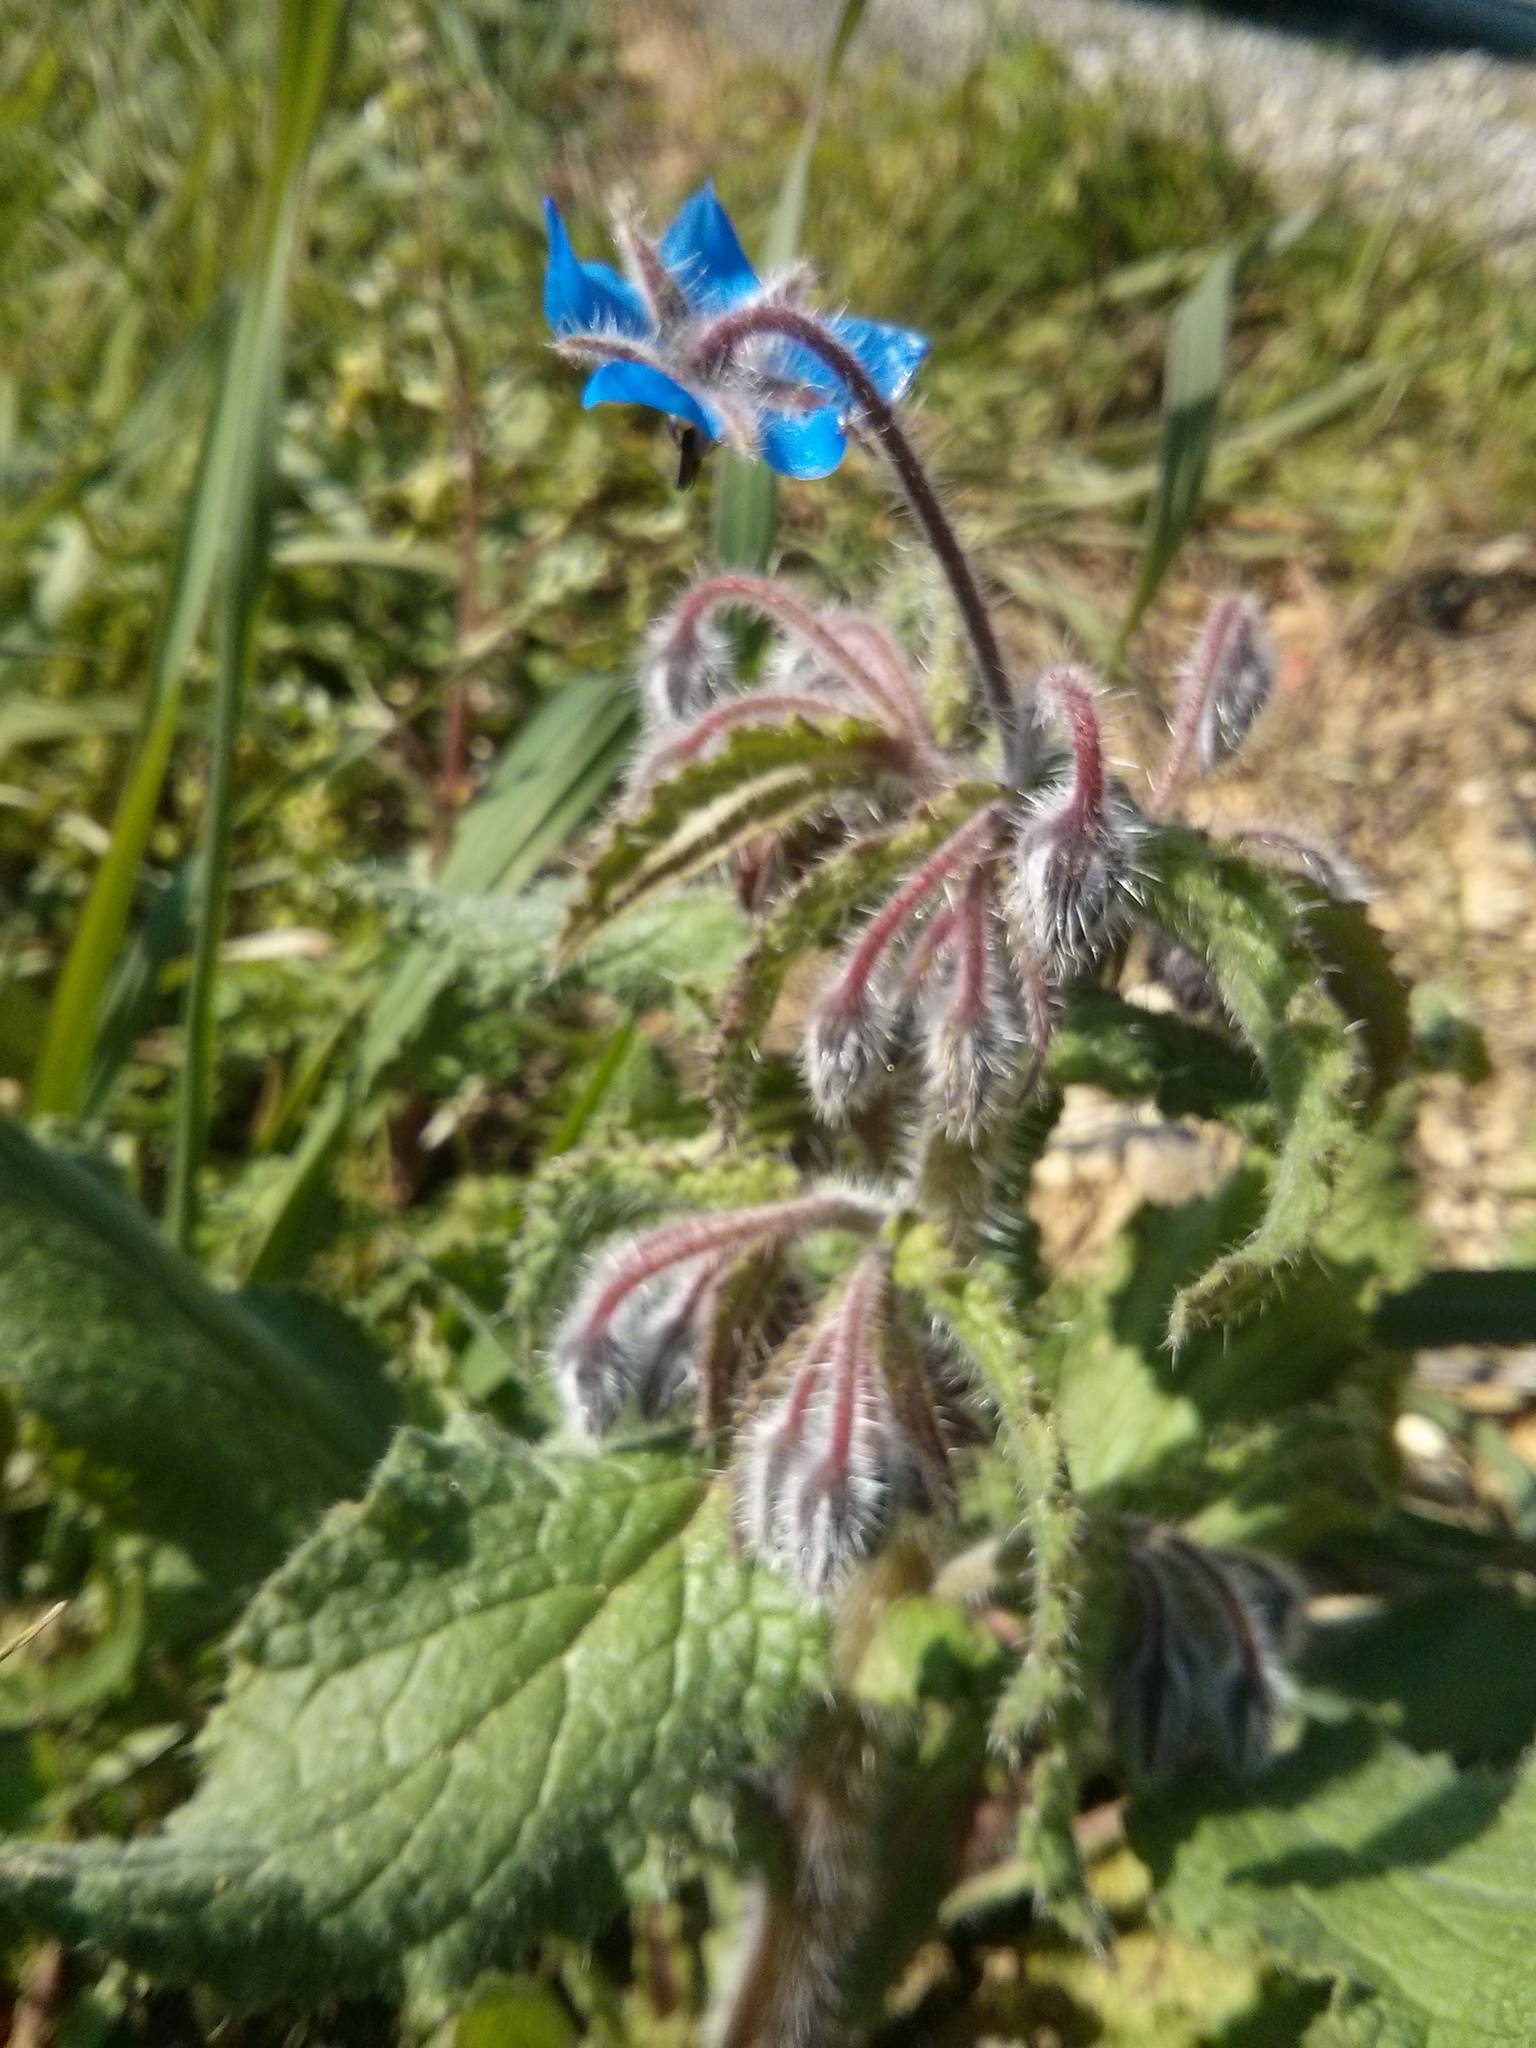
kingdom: Plantae
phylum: Tracheophyta
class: Magnoliopsida
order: Boraginales
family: Boraginaceae
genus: Borago
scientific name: Borago officinalis
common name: Borage
